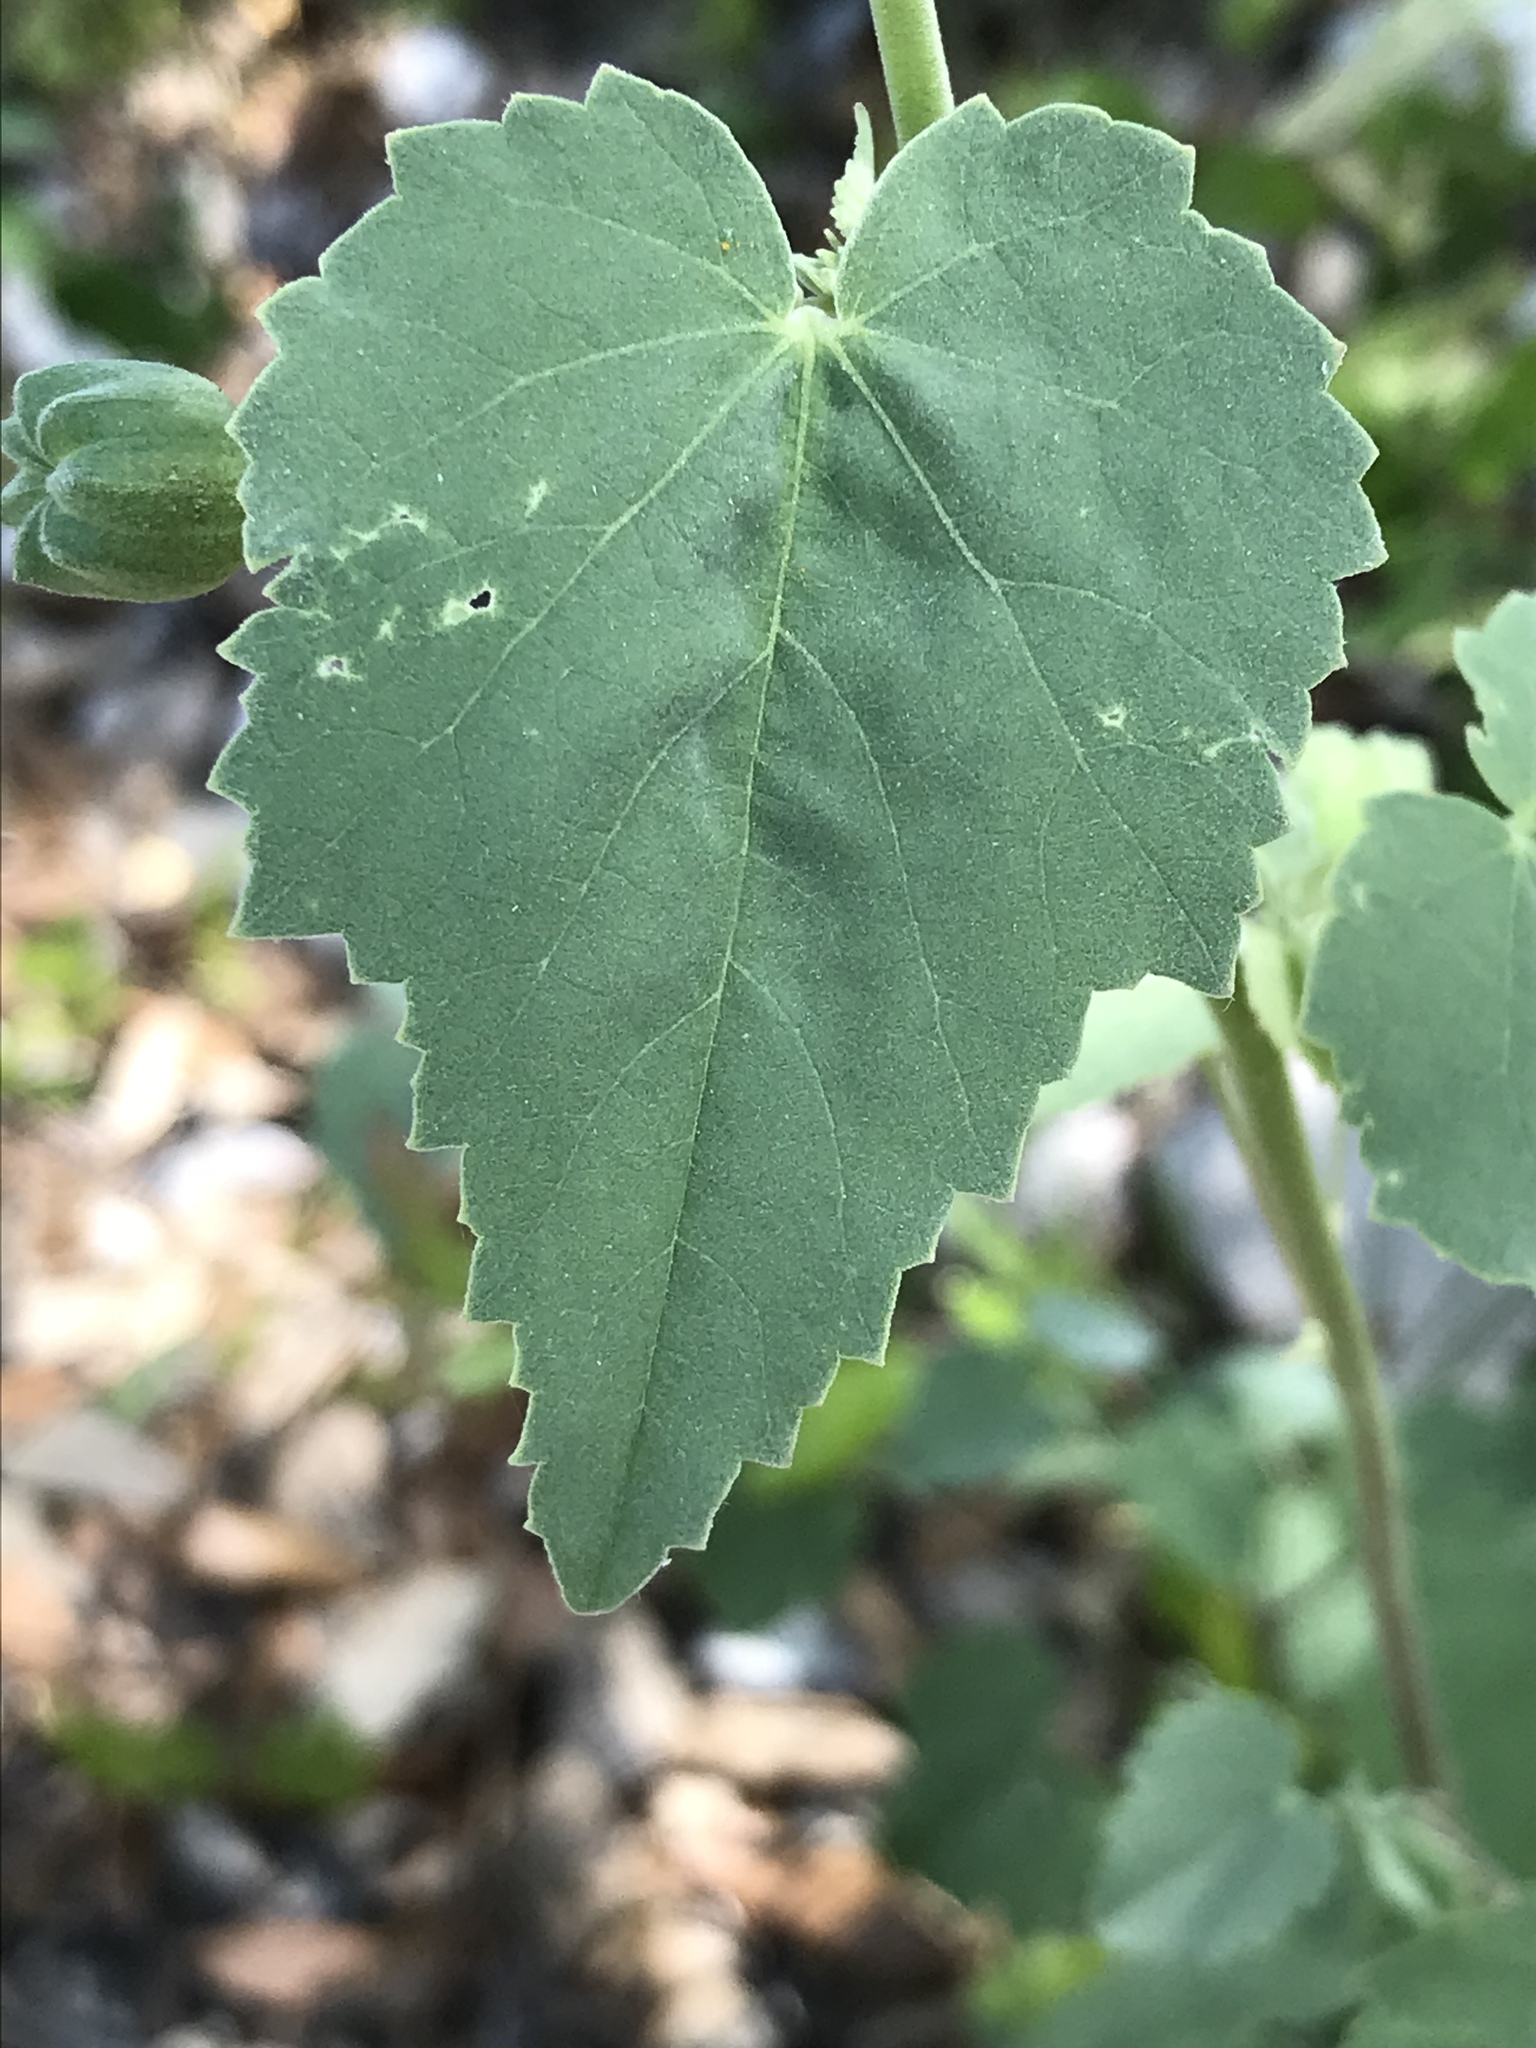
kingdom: Plantae
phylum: Tracheophyta
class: Magnoliopsida
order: Malvales
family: Malvaceae
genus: Abutilon
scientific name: Abutilon fruticosum
